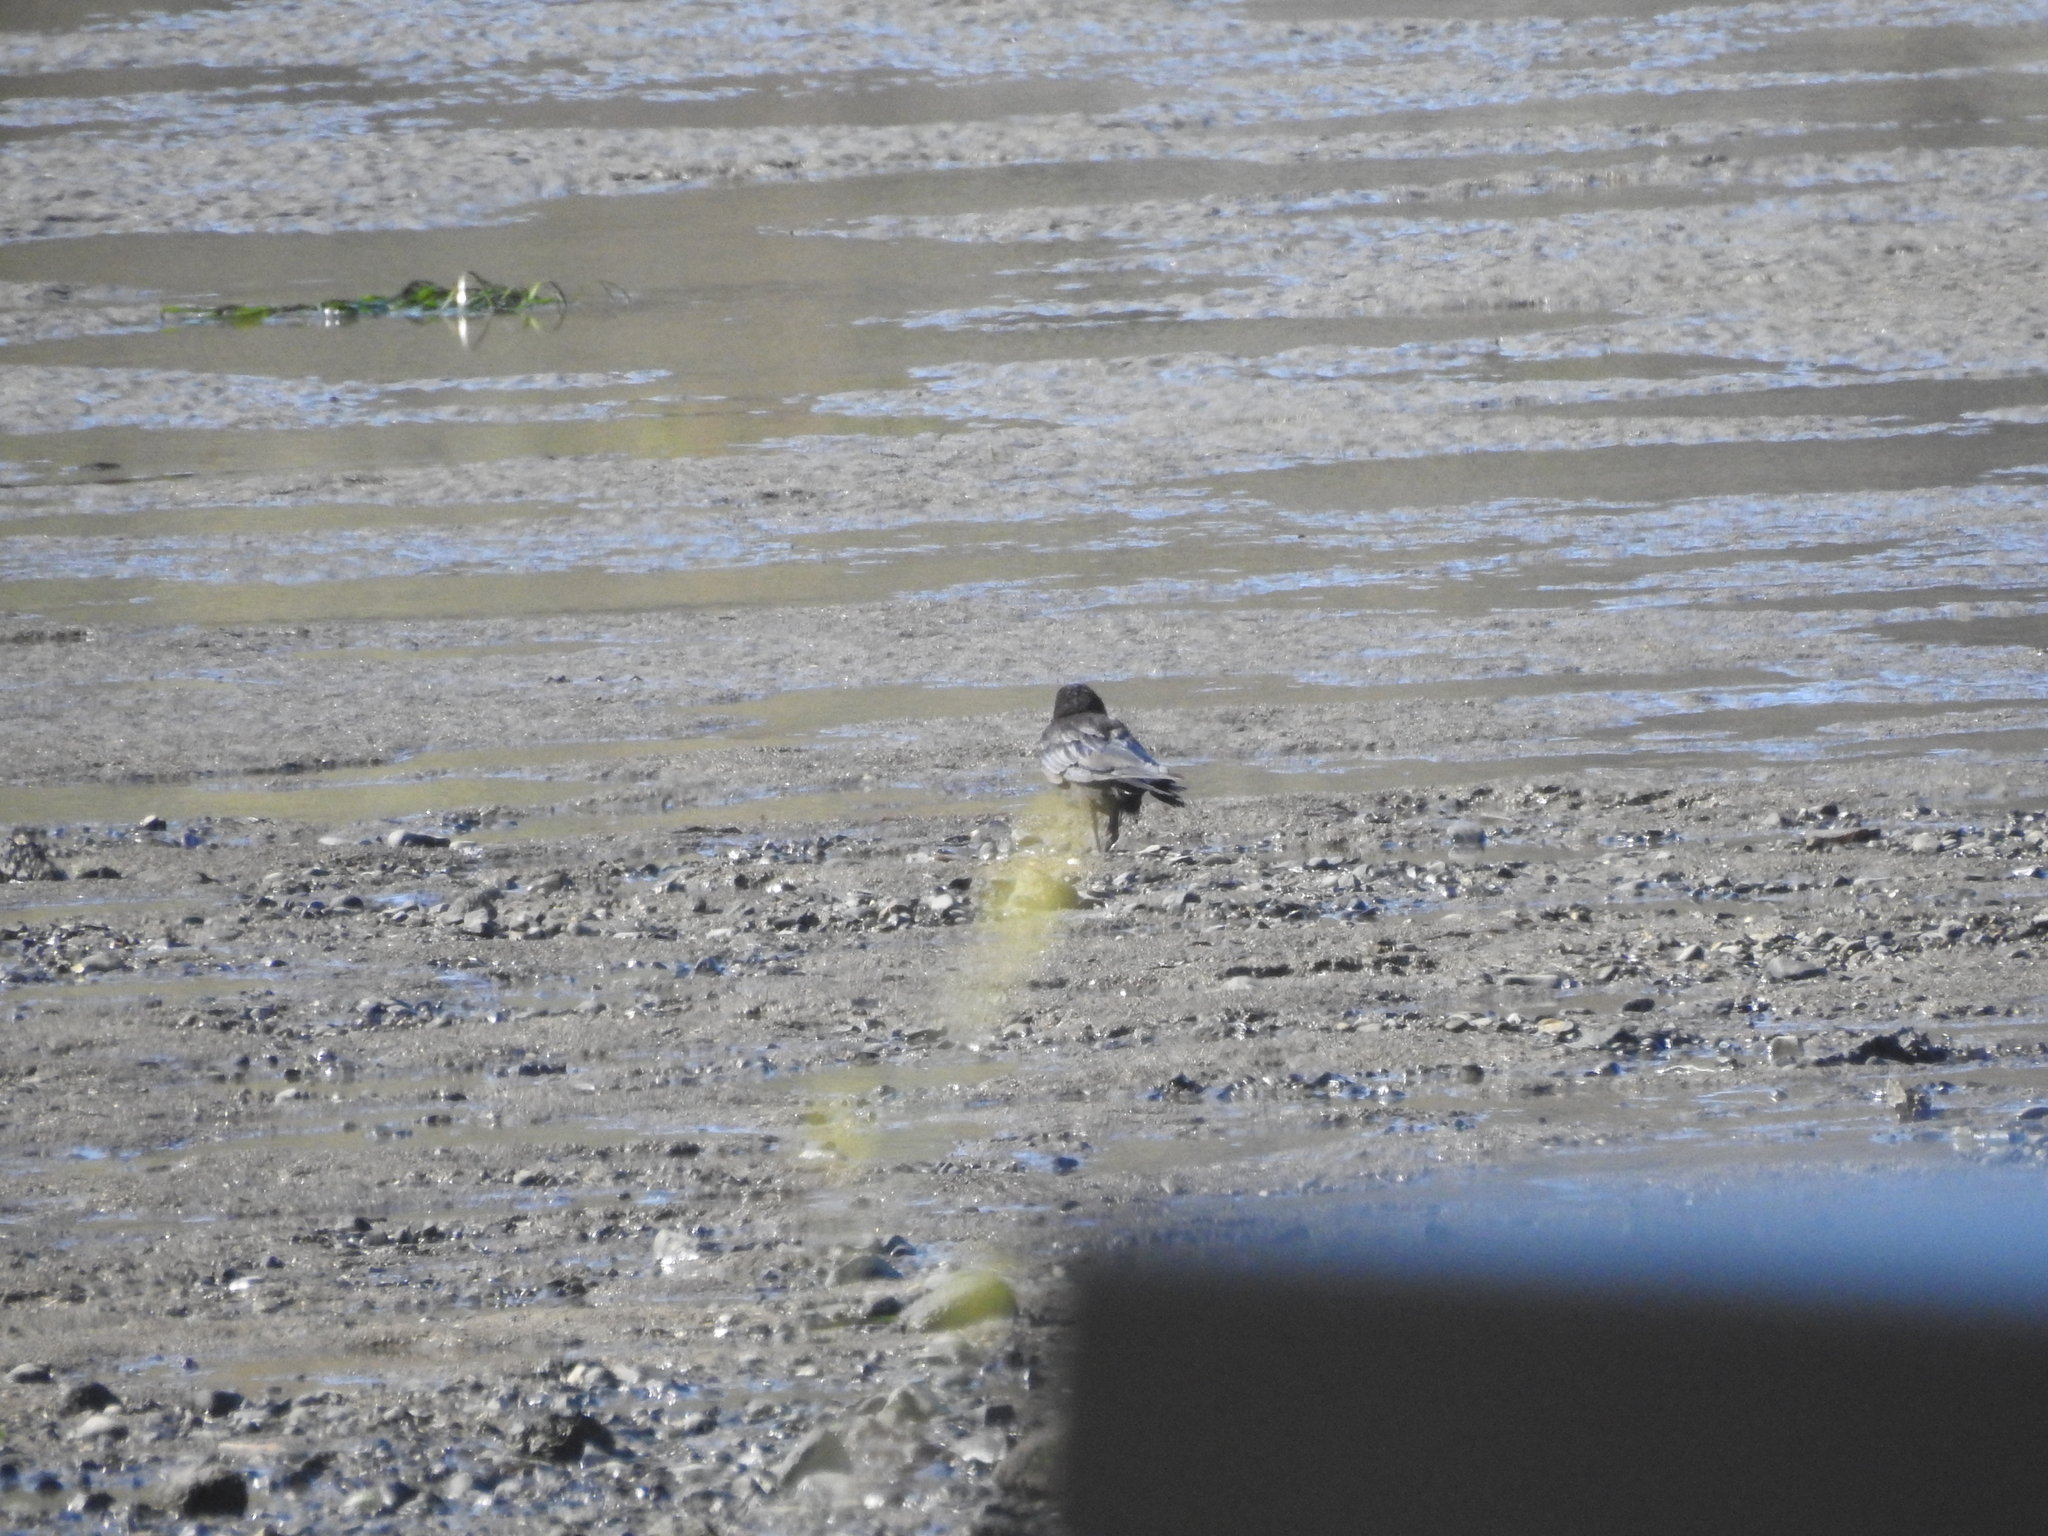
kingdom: Animalia
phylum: Chordata
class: Aves
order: Passeriformes
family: Corvidae
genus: Corvus
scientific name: Corvus brachyrhynchos
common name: American crow
